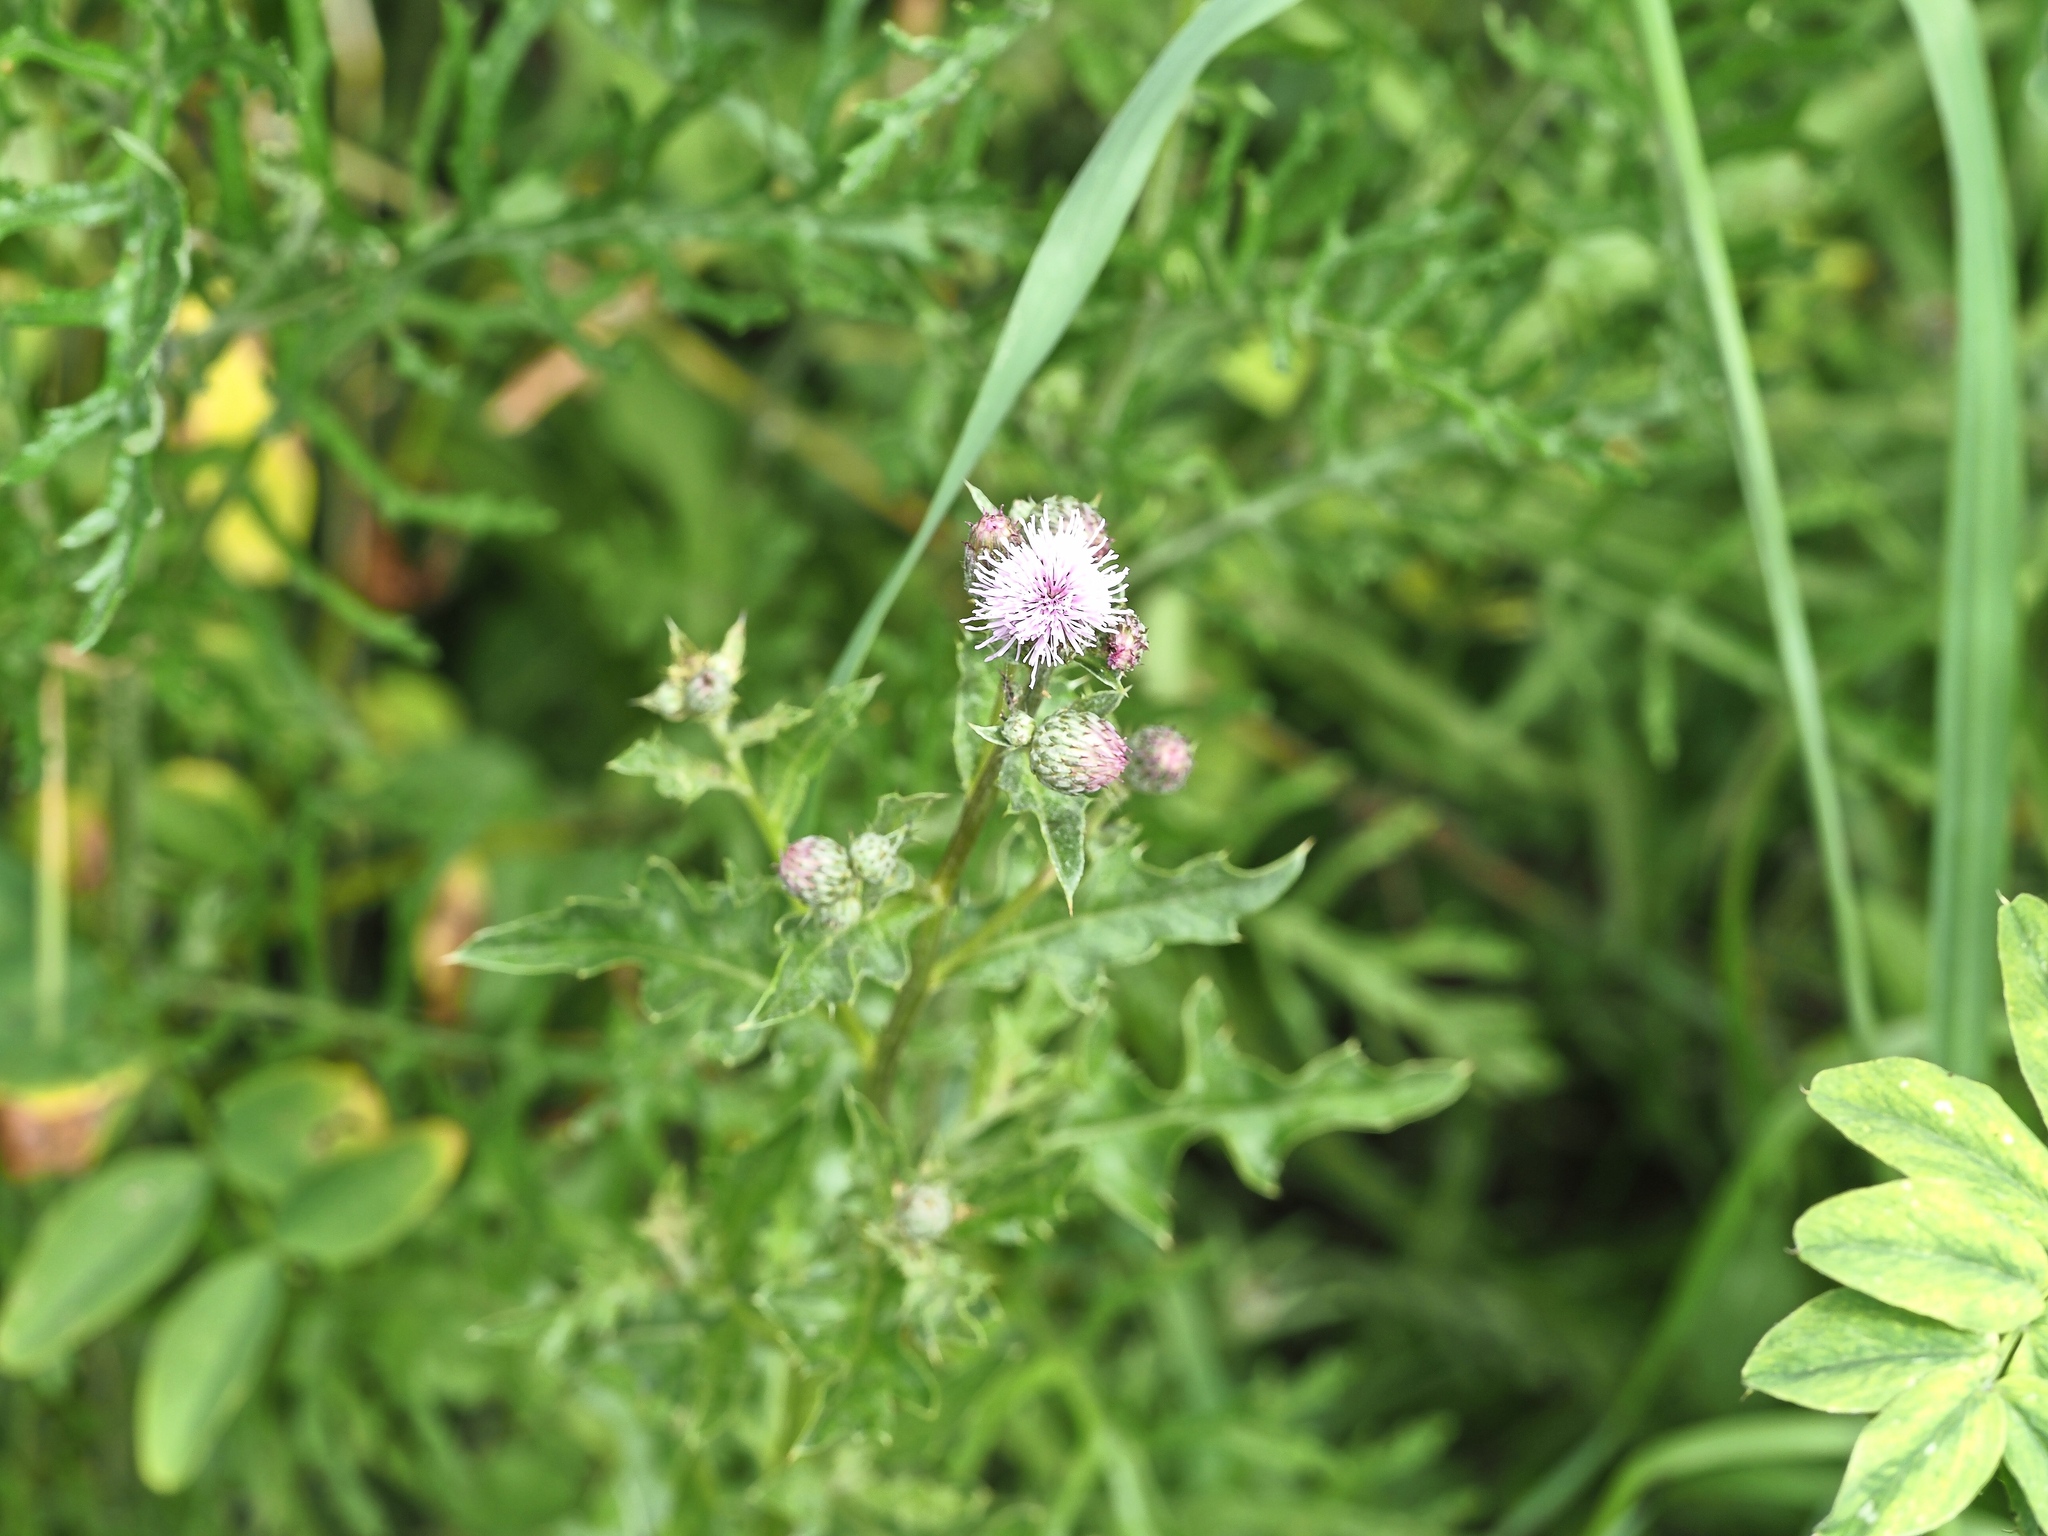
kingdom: Plantae
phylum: Tracheophyta
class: Magnoliopsida
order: Asterales
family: Asteraceae
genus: Cirsium
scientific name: Cirsium arvense
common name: Creeping thistle
